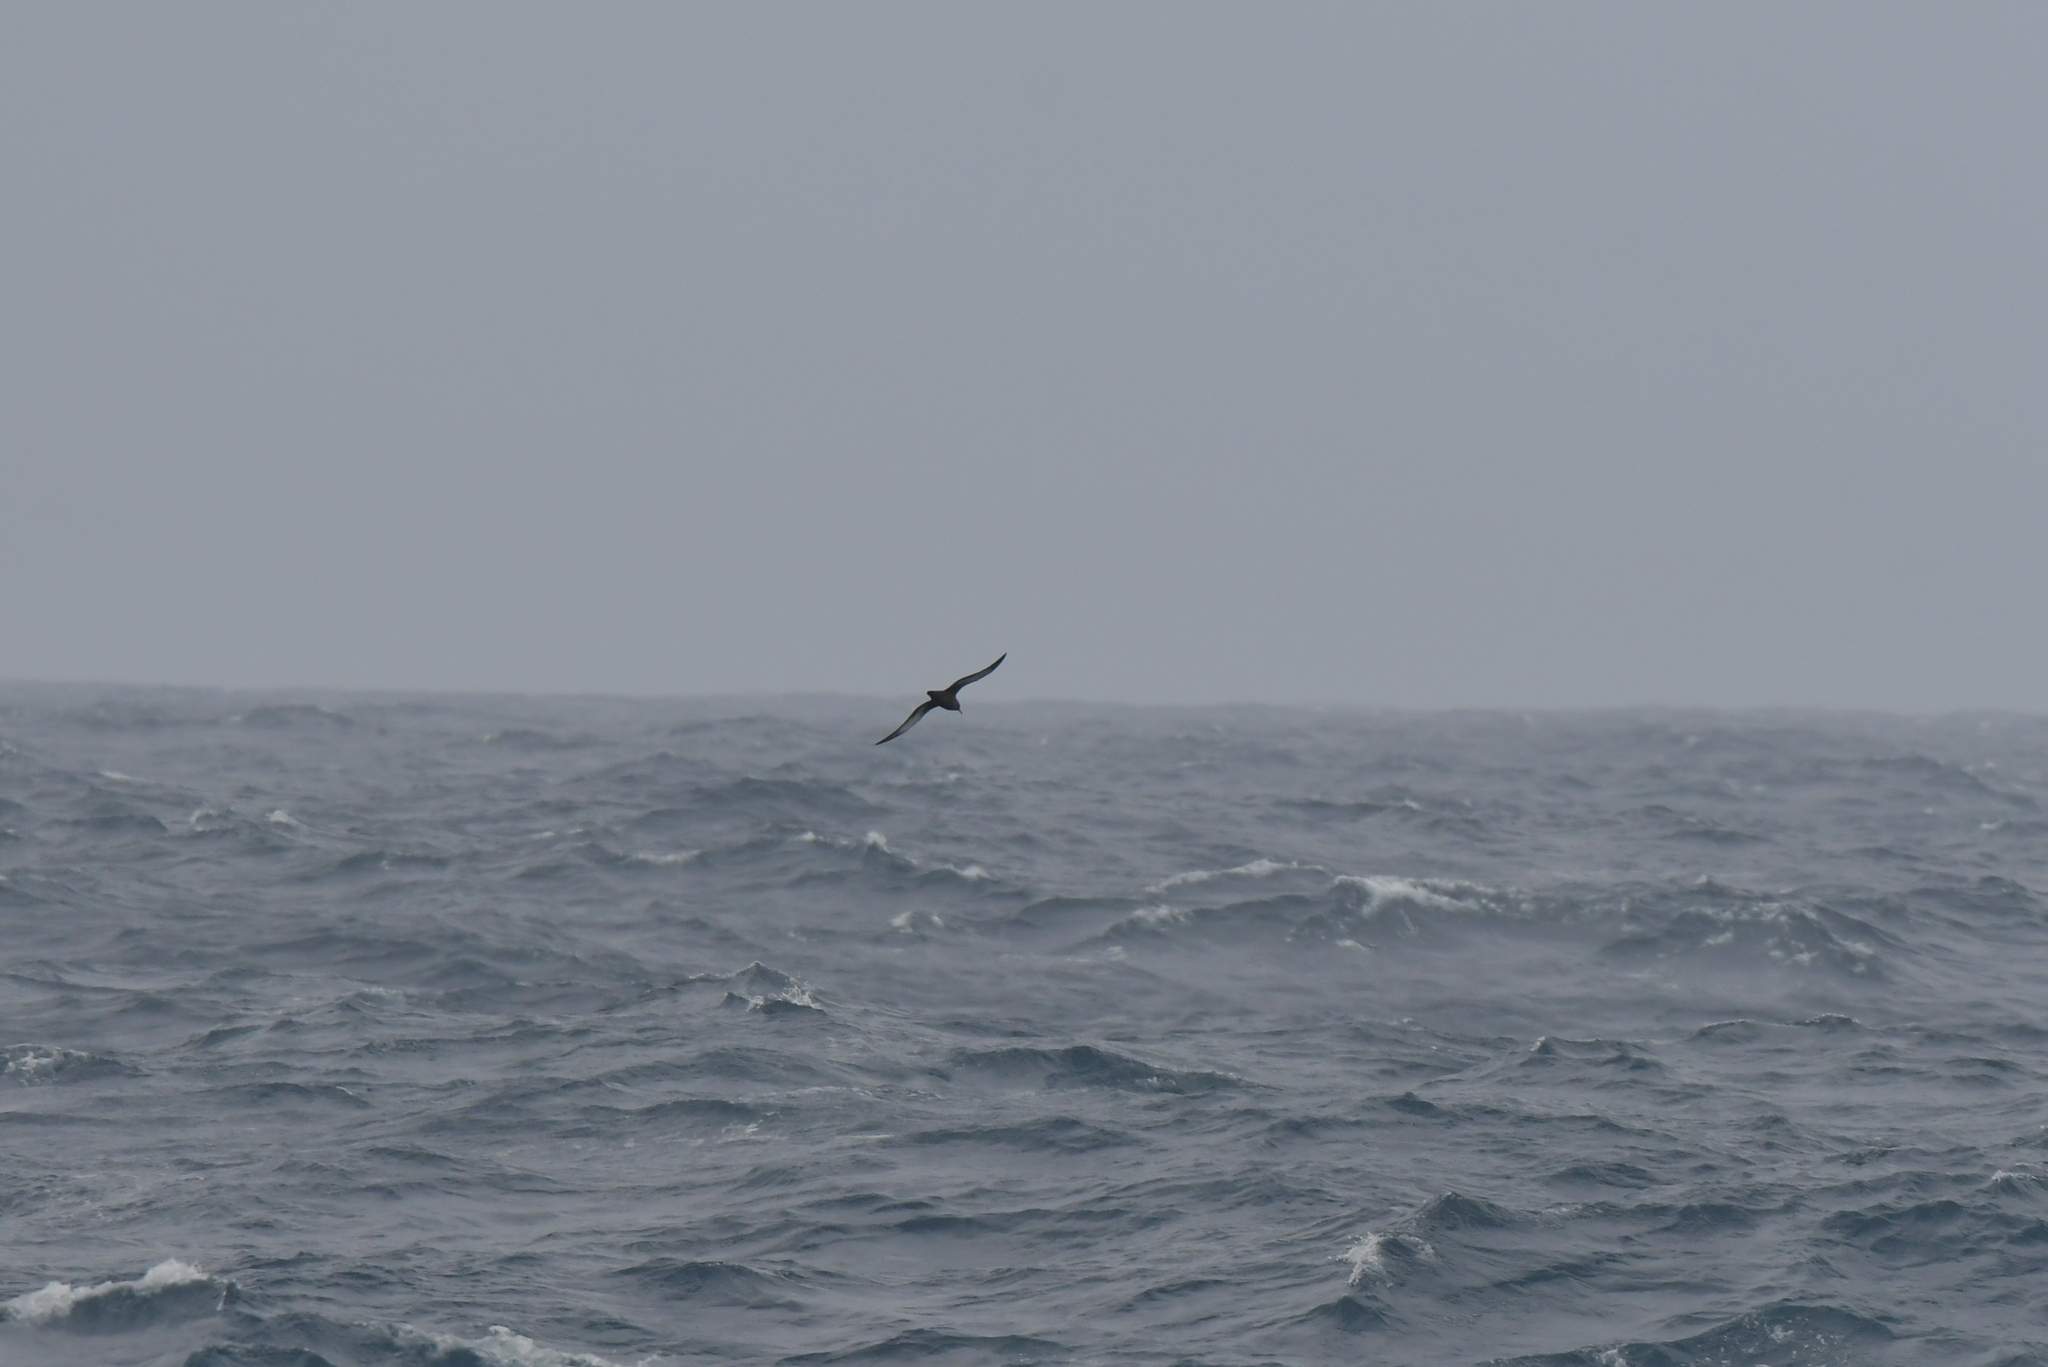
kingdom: Animalia
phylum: Chordata
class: Aves
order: Procellariiformes
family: Procellariidae
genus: Puffinus
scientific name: Puffinus griseus
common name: Sooty shearwater
